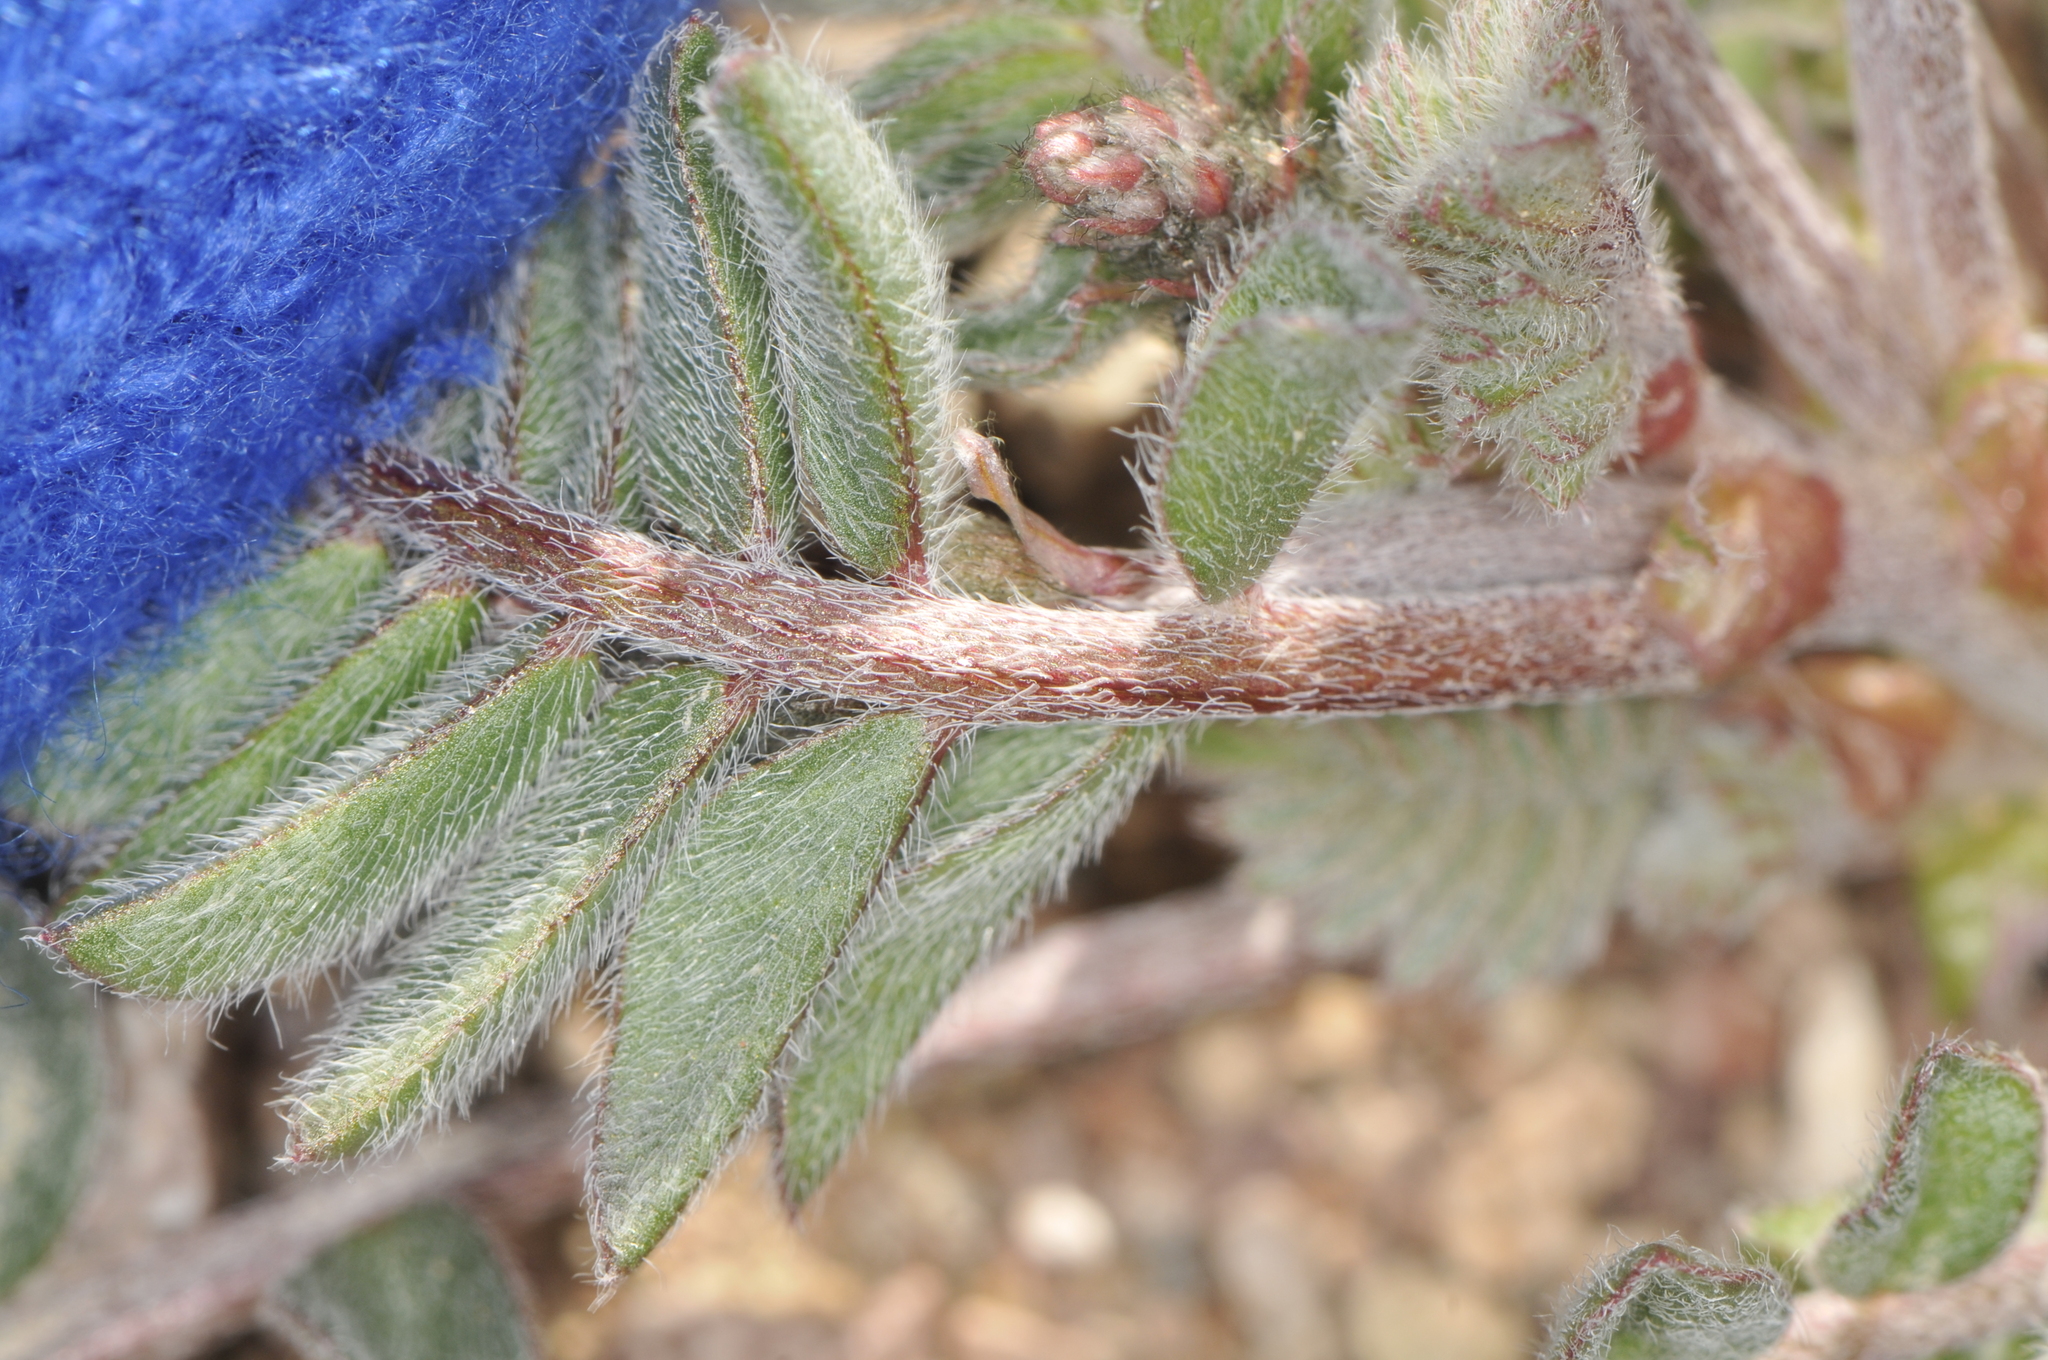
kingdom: Plantae
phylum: Tracheophyta
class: Magnoliopsida
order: Fabales
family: Fabaceae
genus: Astragalus
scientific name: Astragalus layneae
